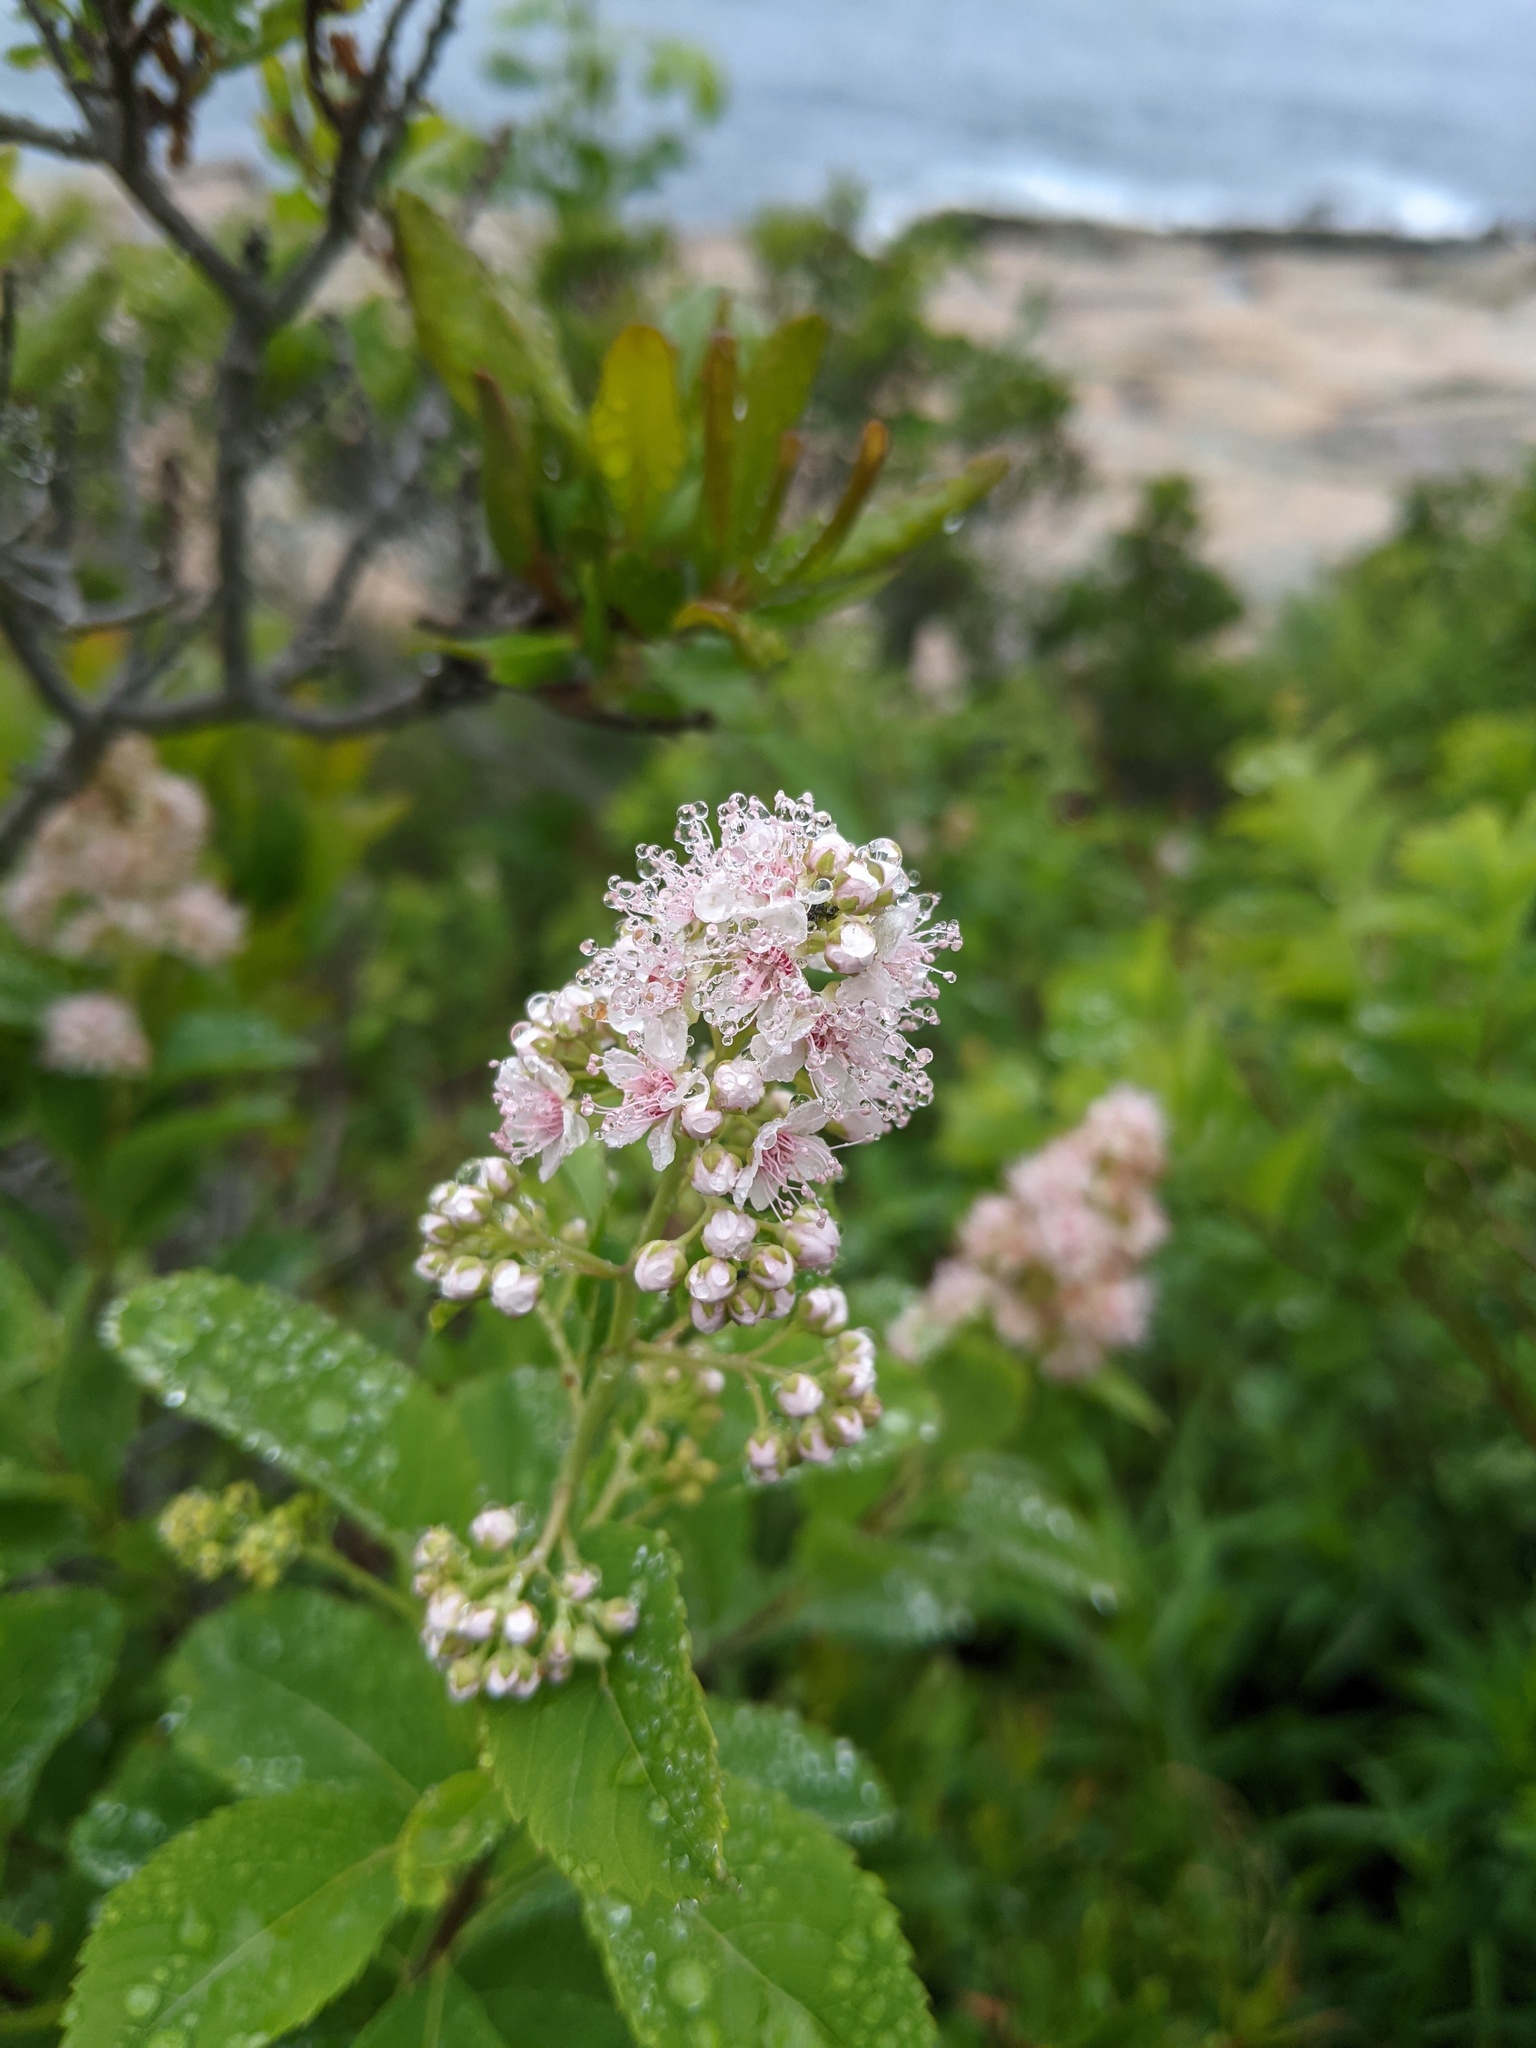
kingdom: Plantae
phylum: Tracheophyta
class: Magnoliopsida
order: Rosales
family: Rosaceae
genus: Spiraea
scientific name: Spiraea alba
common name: Pale bridewort
